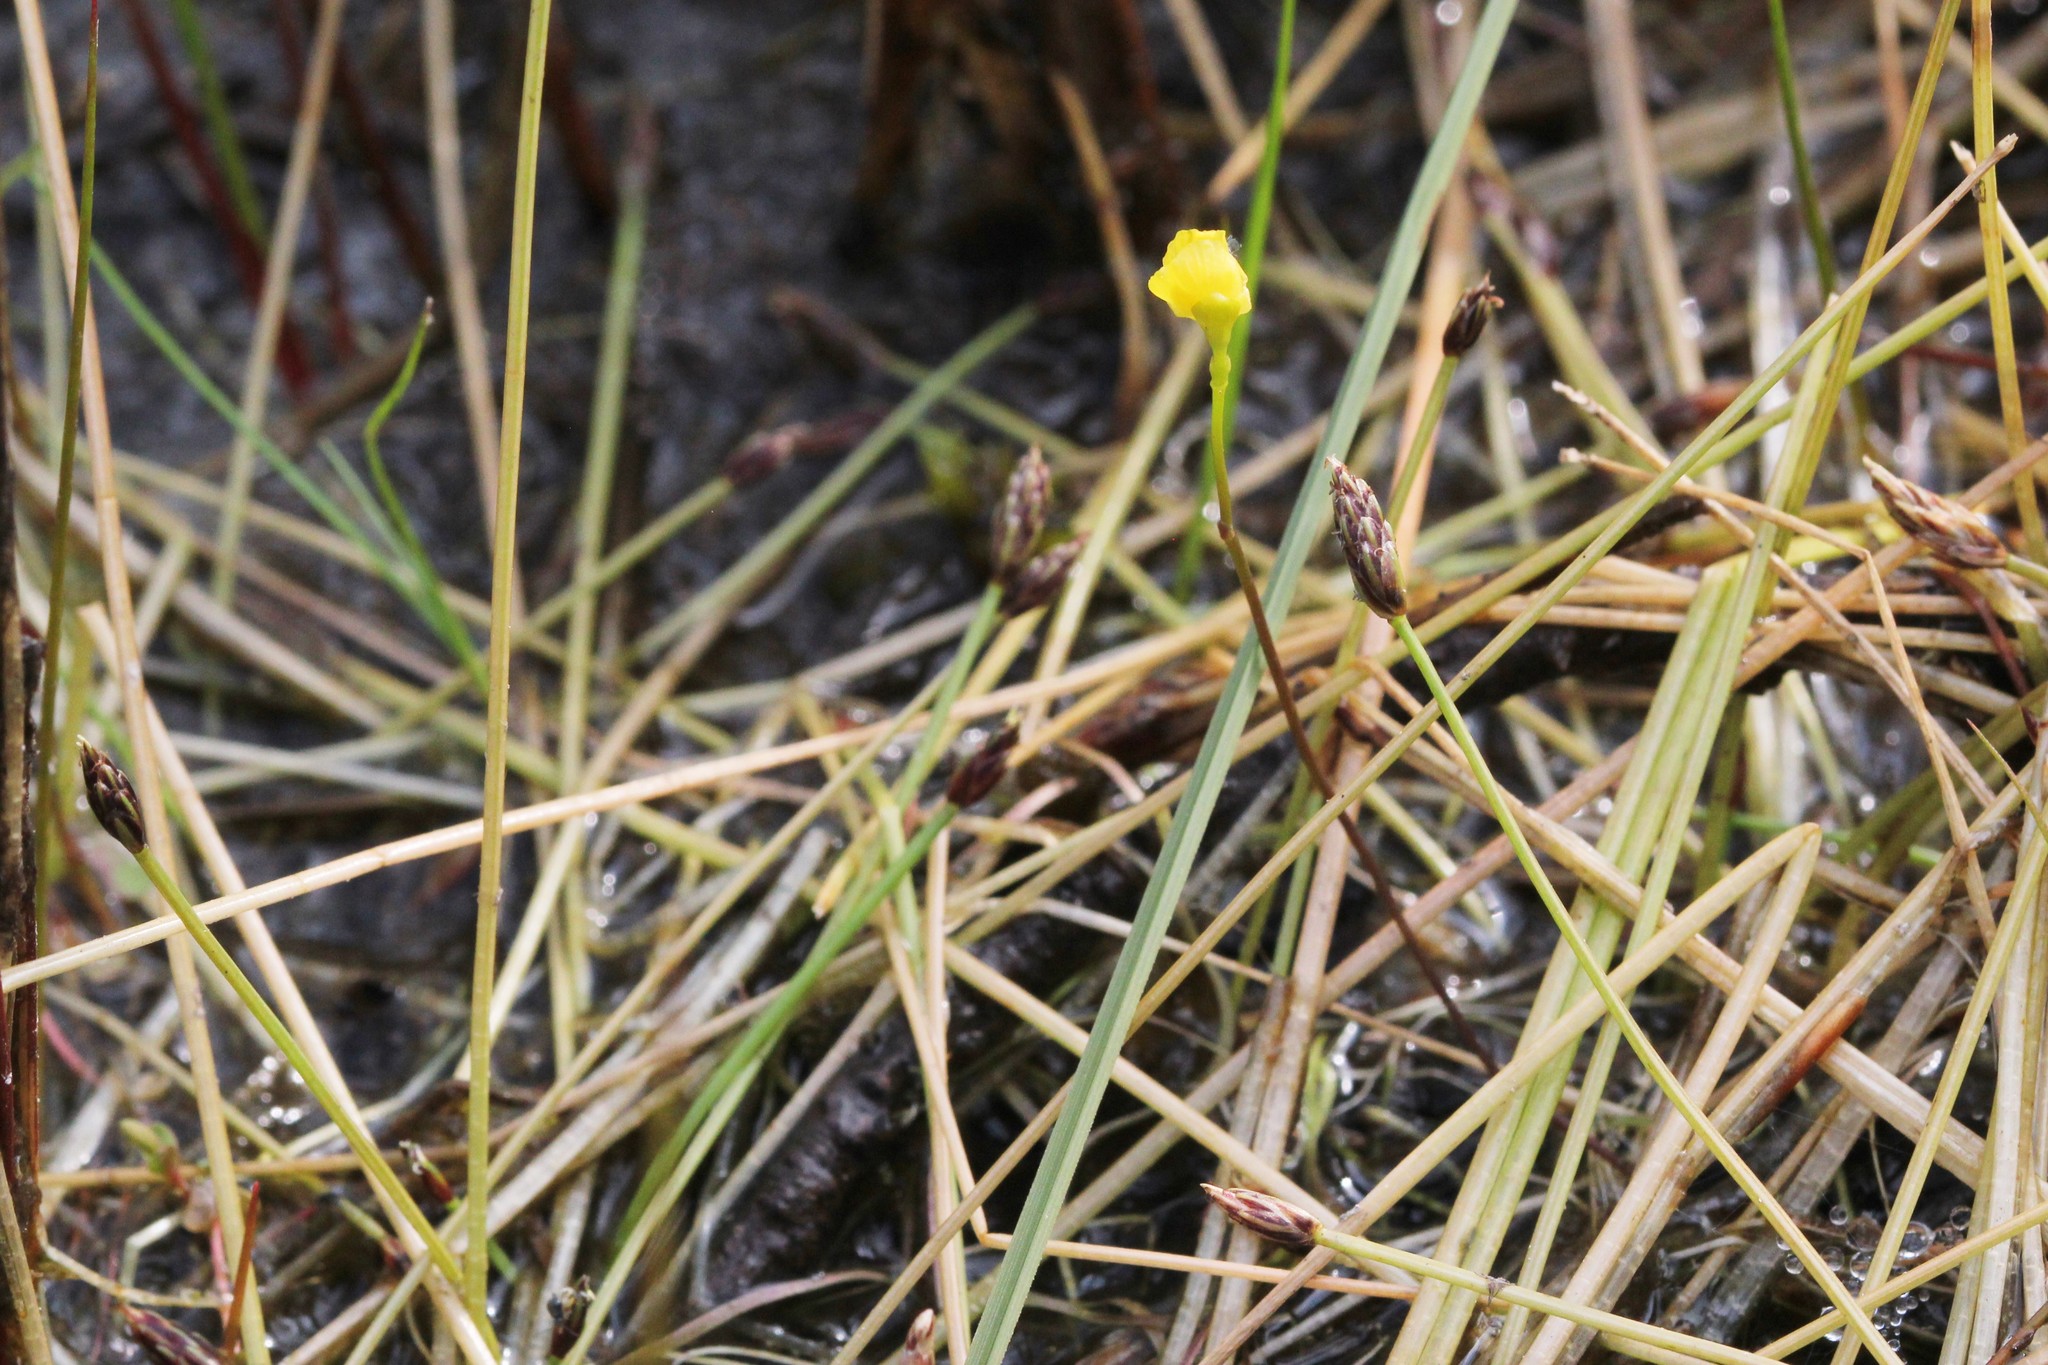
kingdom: Plantae
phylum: Tracheophyta
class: Magnoliopsida
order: Lamiales
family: Lentibulariaceae
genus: Utricularia
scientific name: Utricularia intermedia
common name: Intermediate bladderwort
